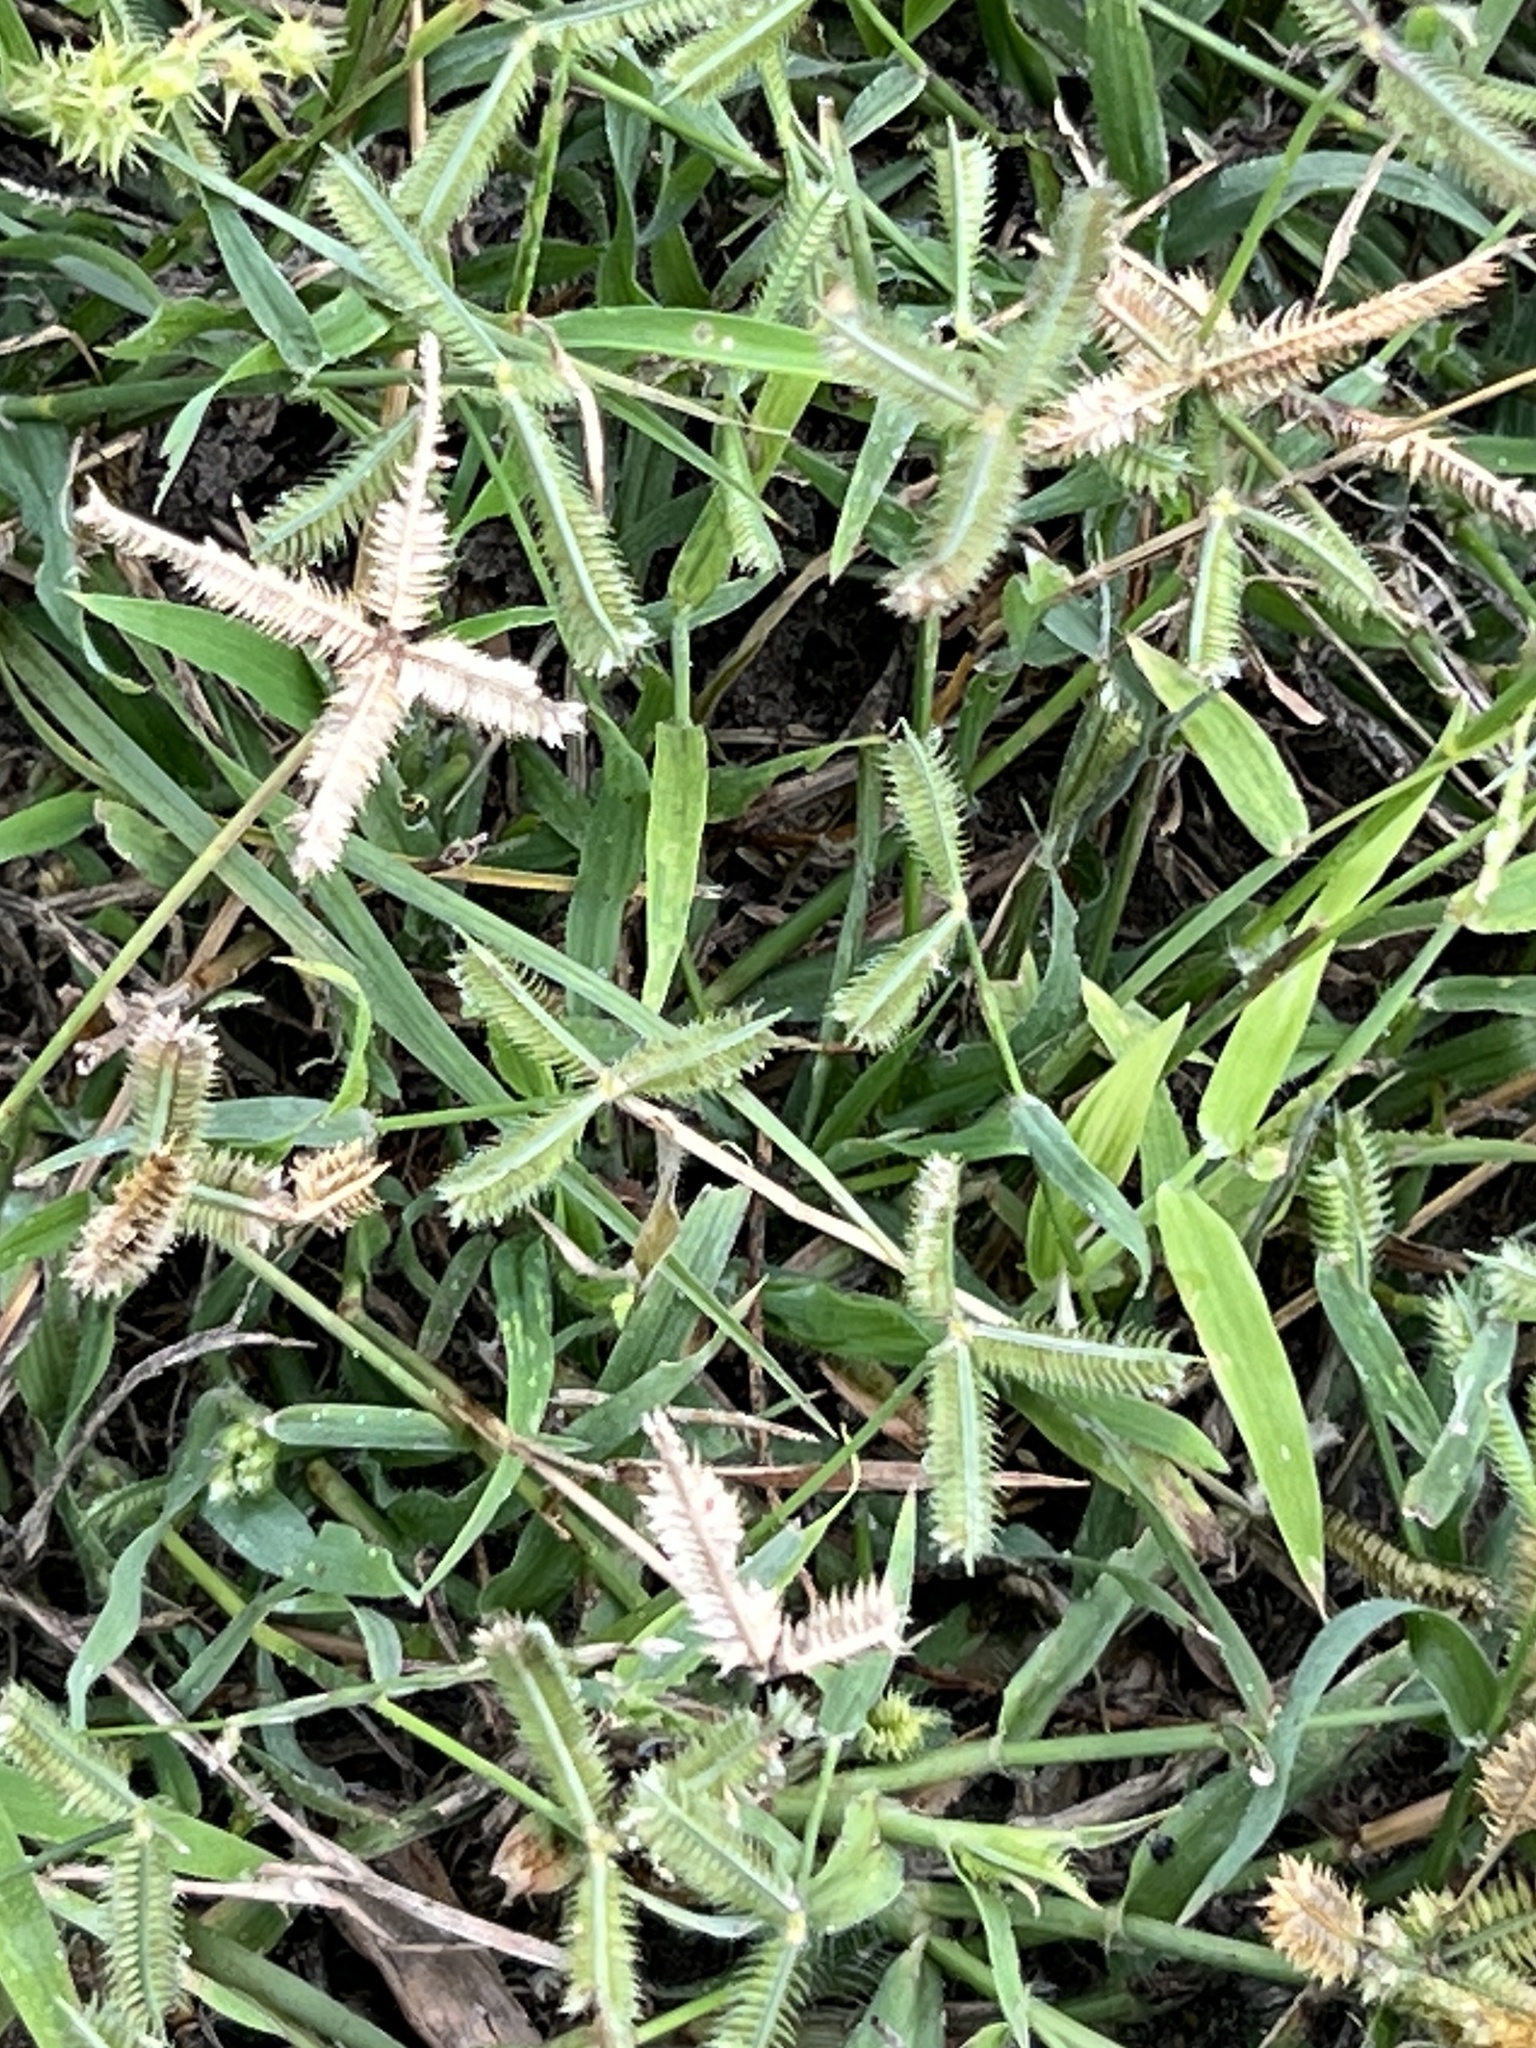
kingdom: Plantae
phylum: Tracheophyta
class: Liliopsida
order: Poales
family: Poaceae
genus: Dactyloctenium
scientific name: Dactyloctenium aegyptium
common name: Egyptian grass
